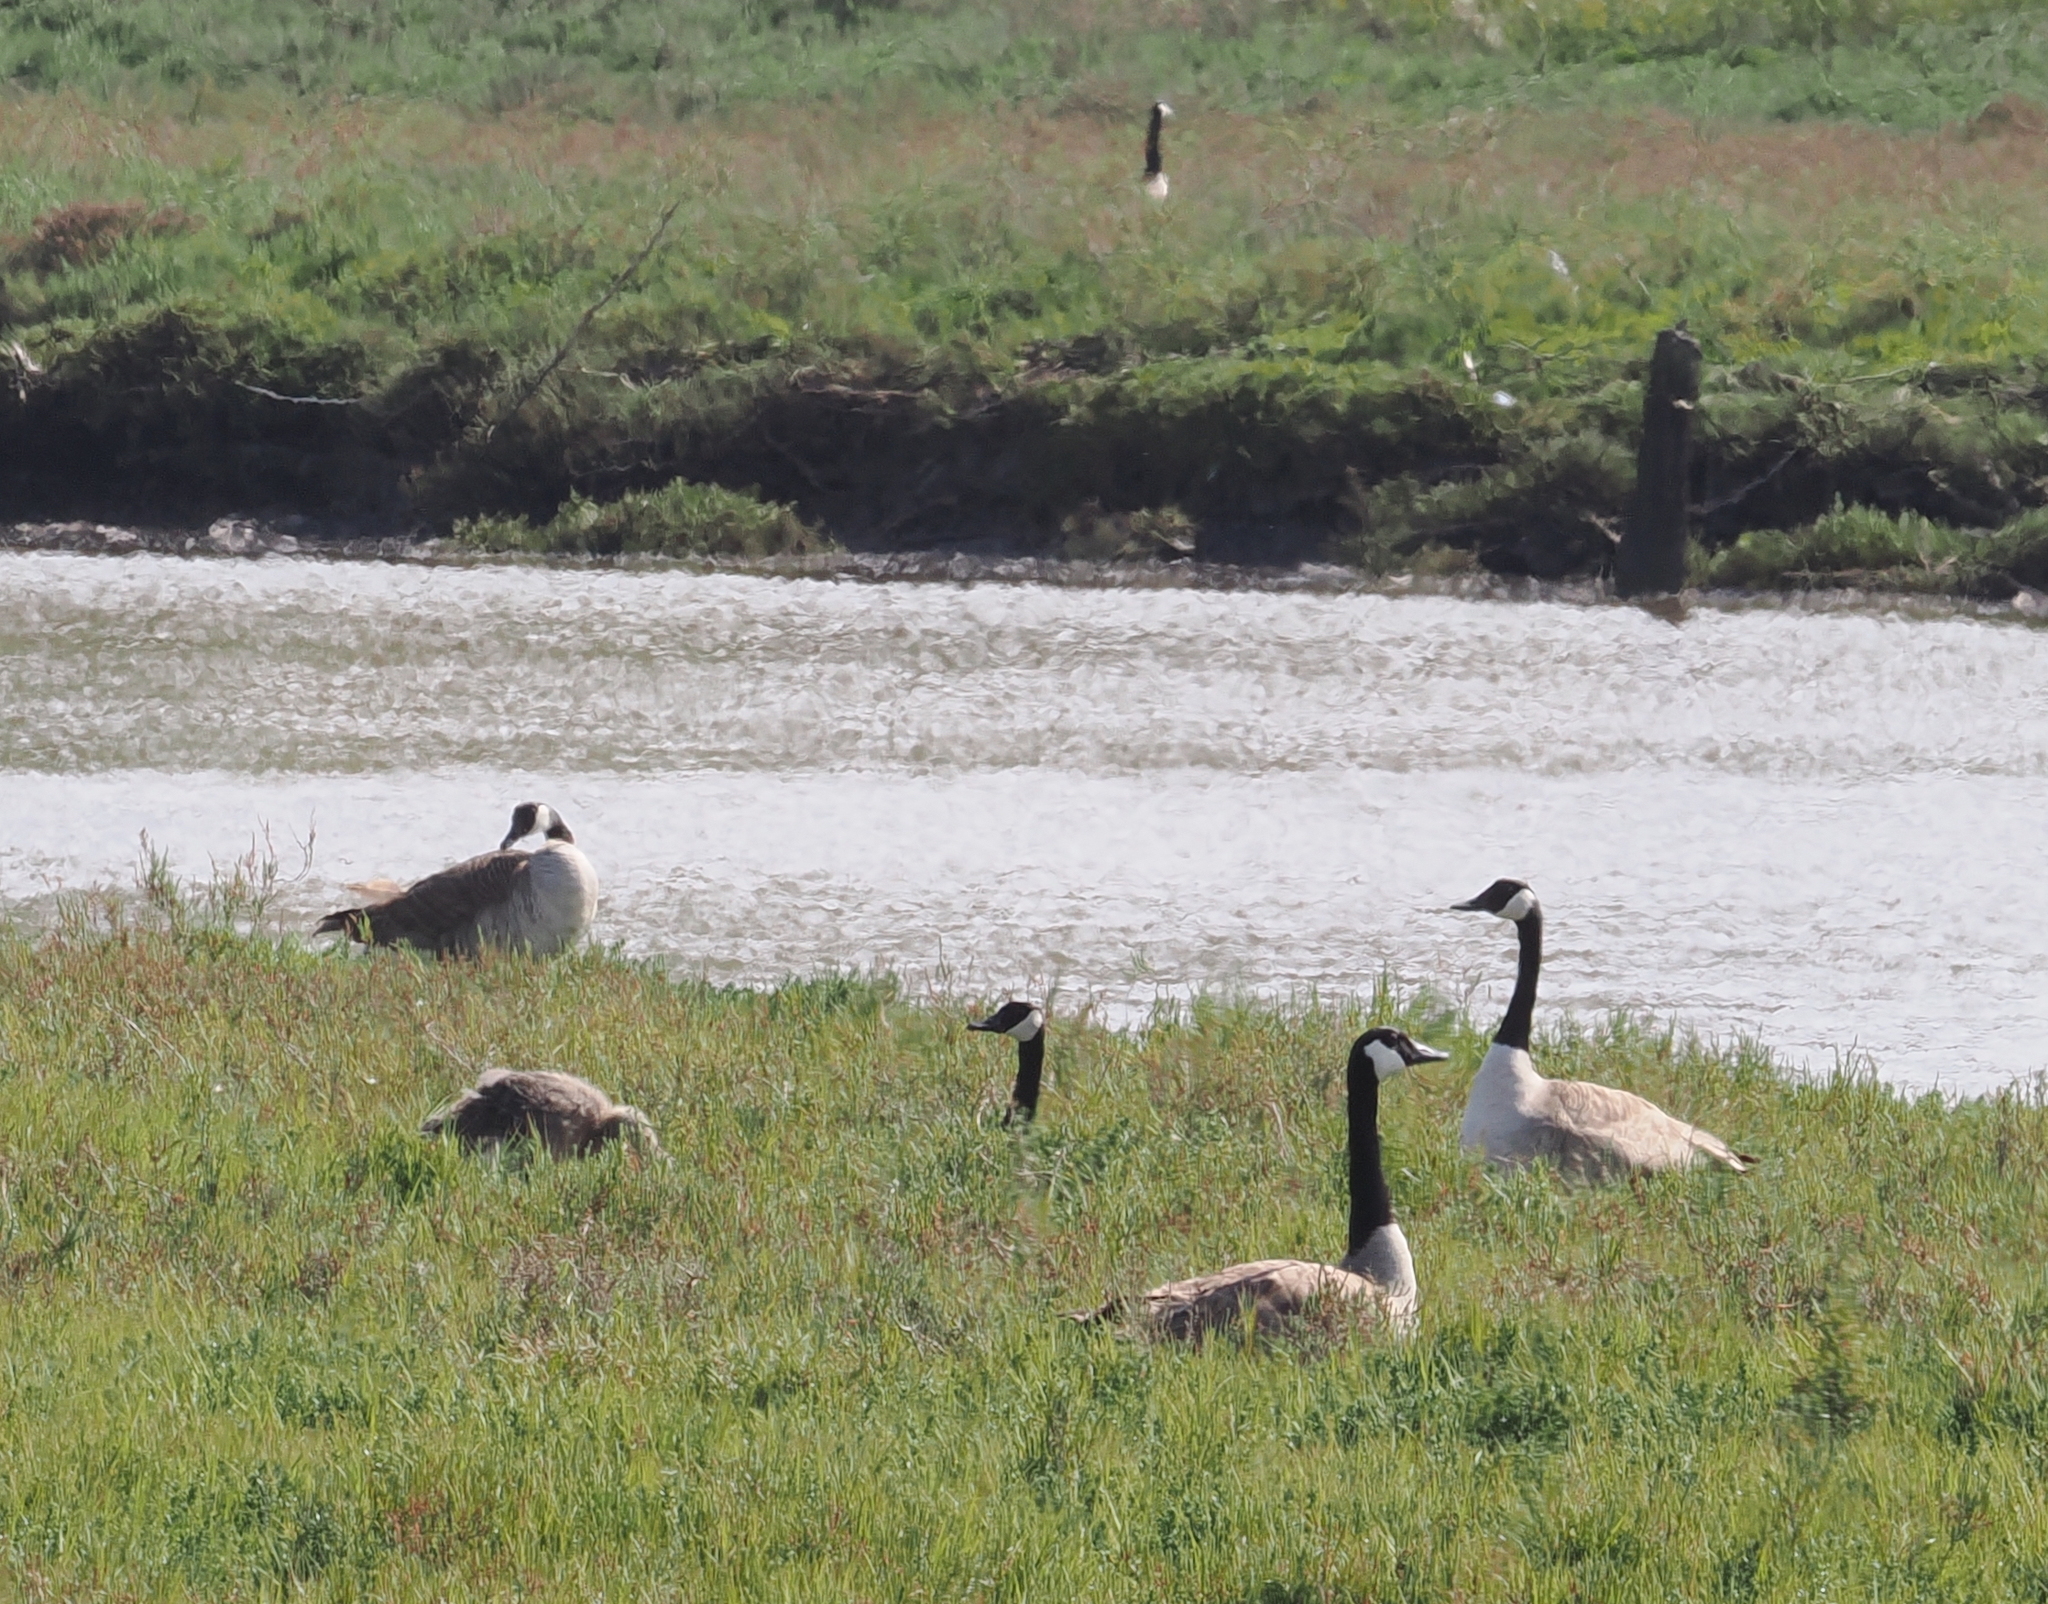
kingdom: Animalia
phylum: Chordata
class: Aves
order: Anseriformes
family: Anatidae
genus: Branta
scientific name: Branta canadensis
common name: Canada goose
